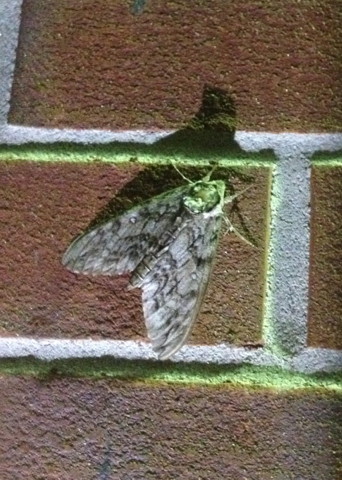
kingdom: Animalia
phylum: Arthropoda
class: Insecta
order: Lepidoptera
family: Sphingidae
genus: Ceratomia
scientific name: Ceratomia undulosa
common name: Waved sphinx
